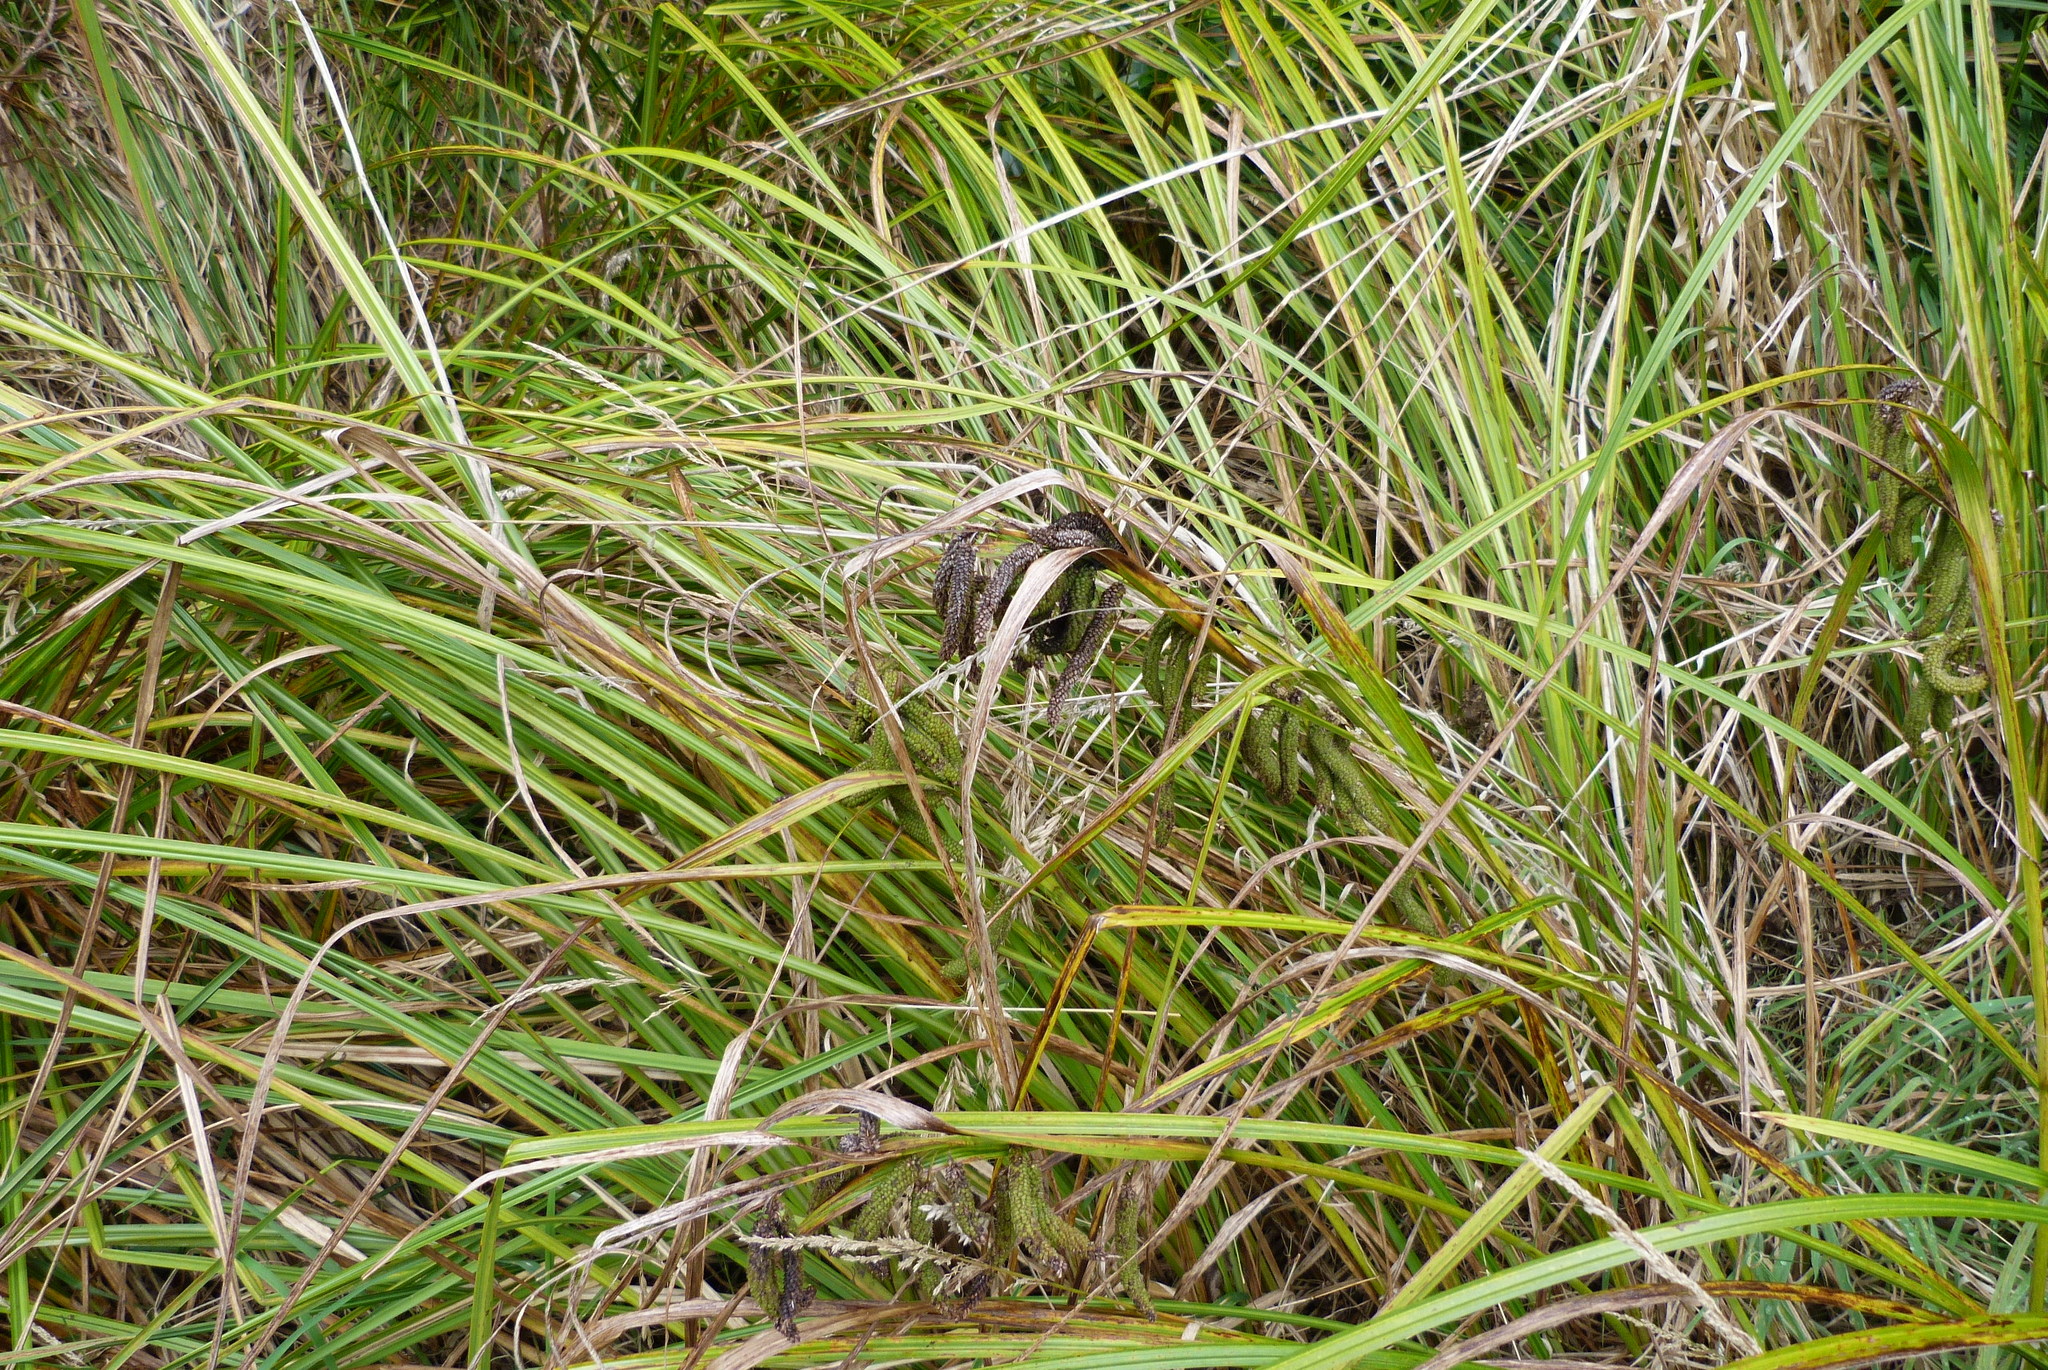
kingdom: Plantae
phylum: Tracheophyta
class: Liliopsida
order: Poales
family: Cyperaceae
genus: Carex
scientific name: Carex geminata
